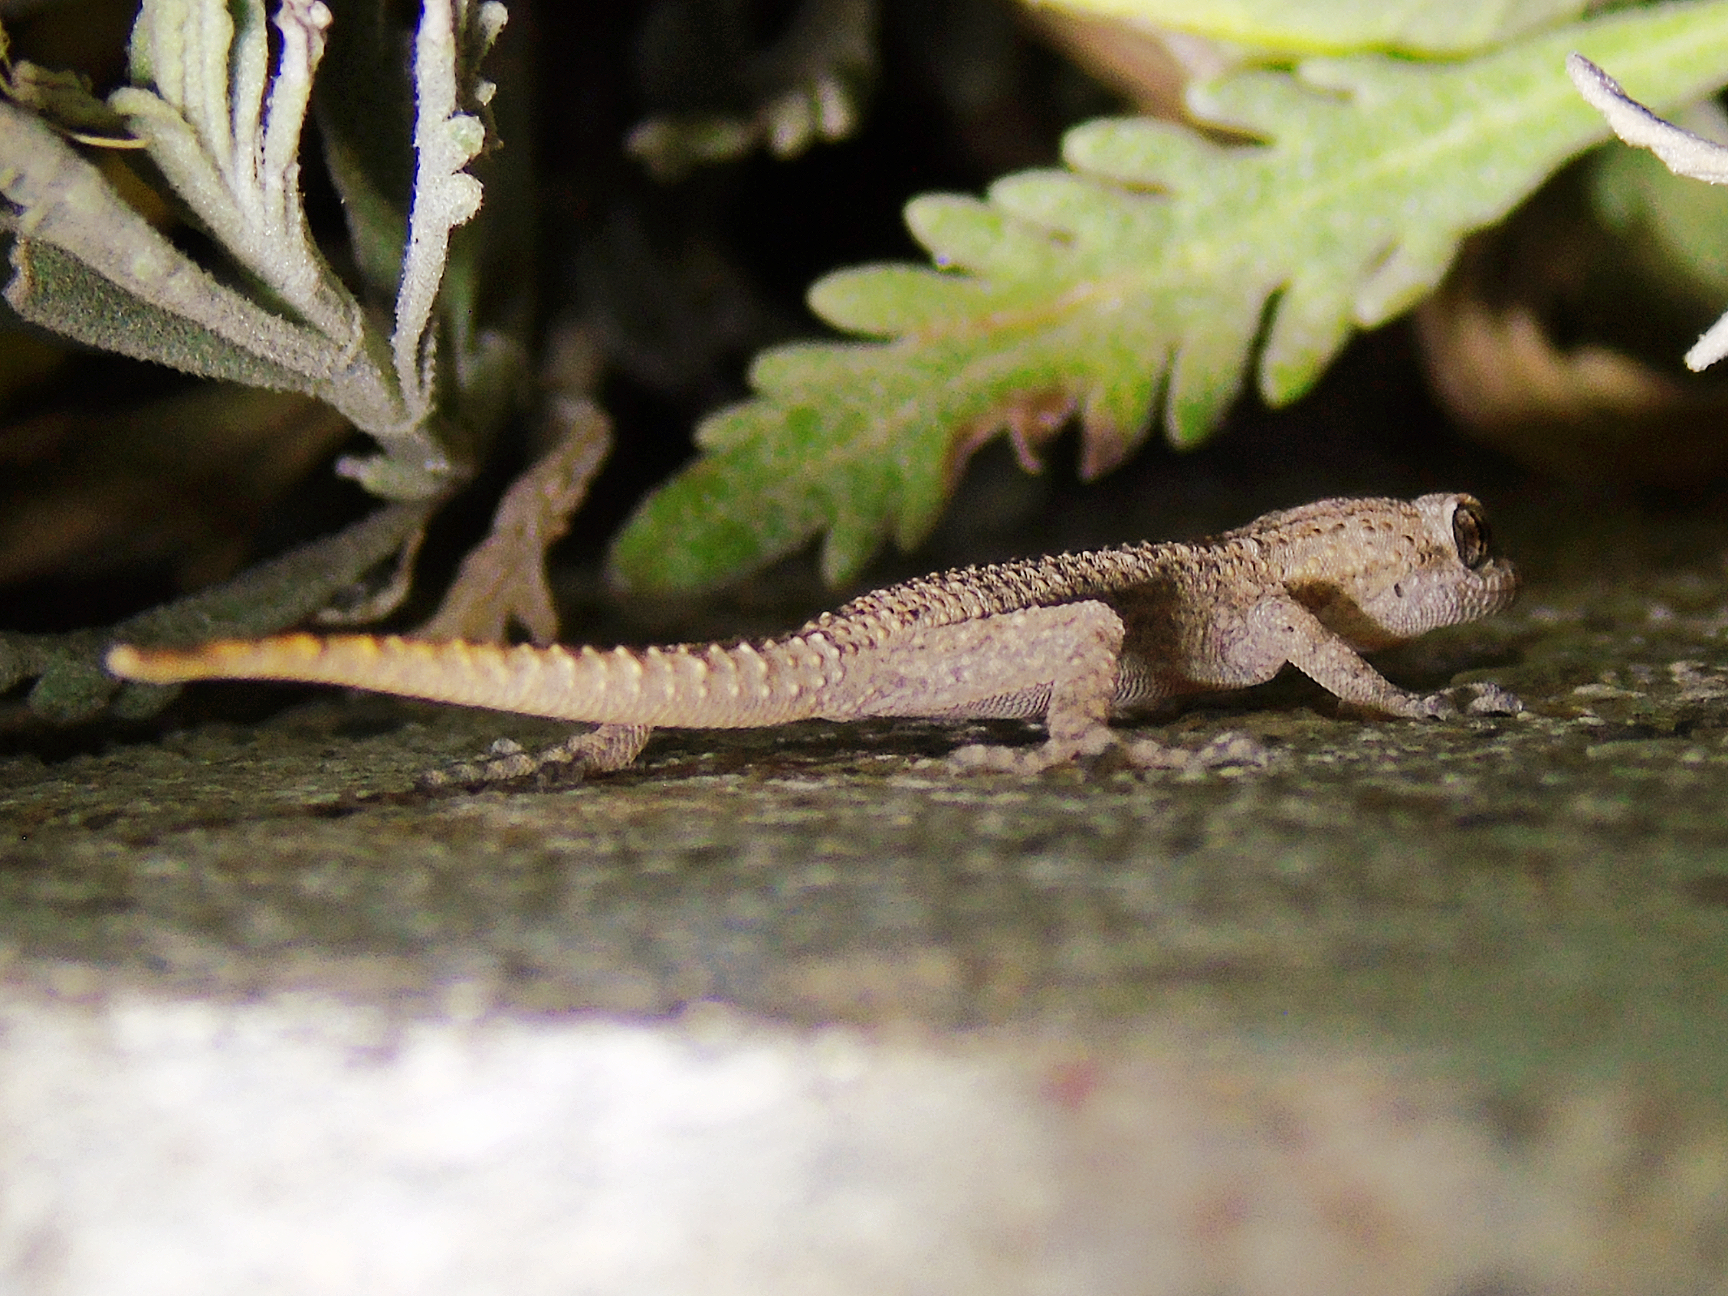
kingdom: Animalia
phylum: Chordata
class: Squamata
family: Gekkonidae
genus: Mediodactylus
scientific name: Mediodactylus kotschyi
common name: Kotschy's gecko
